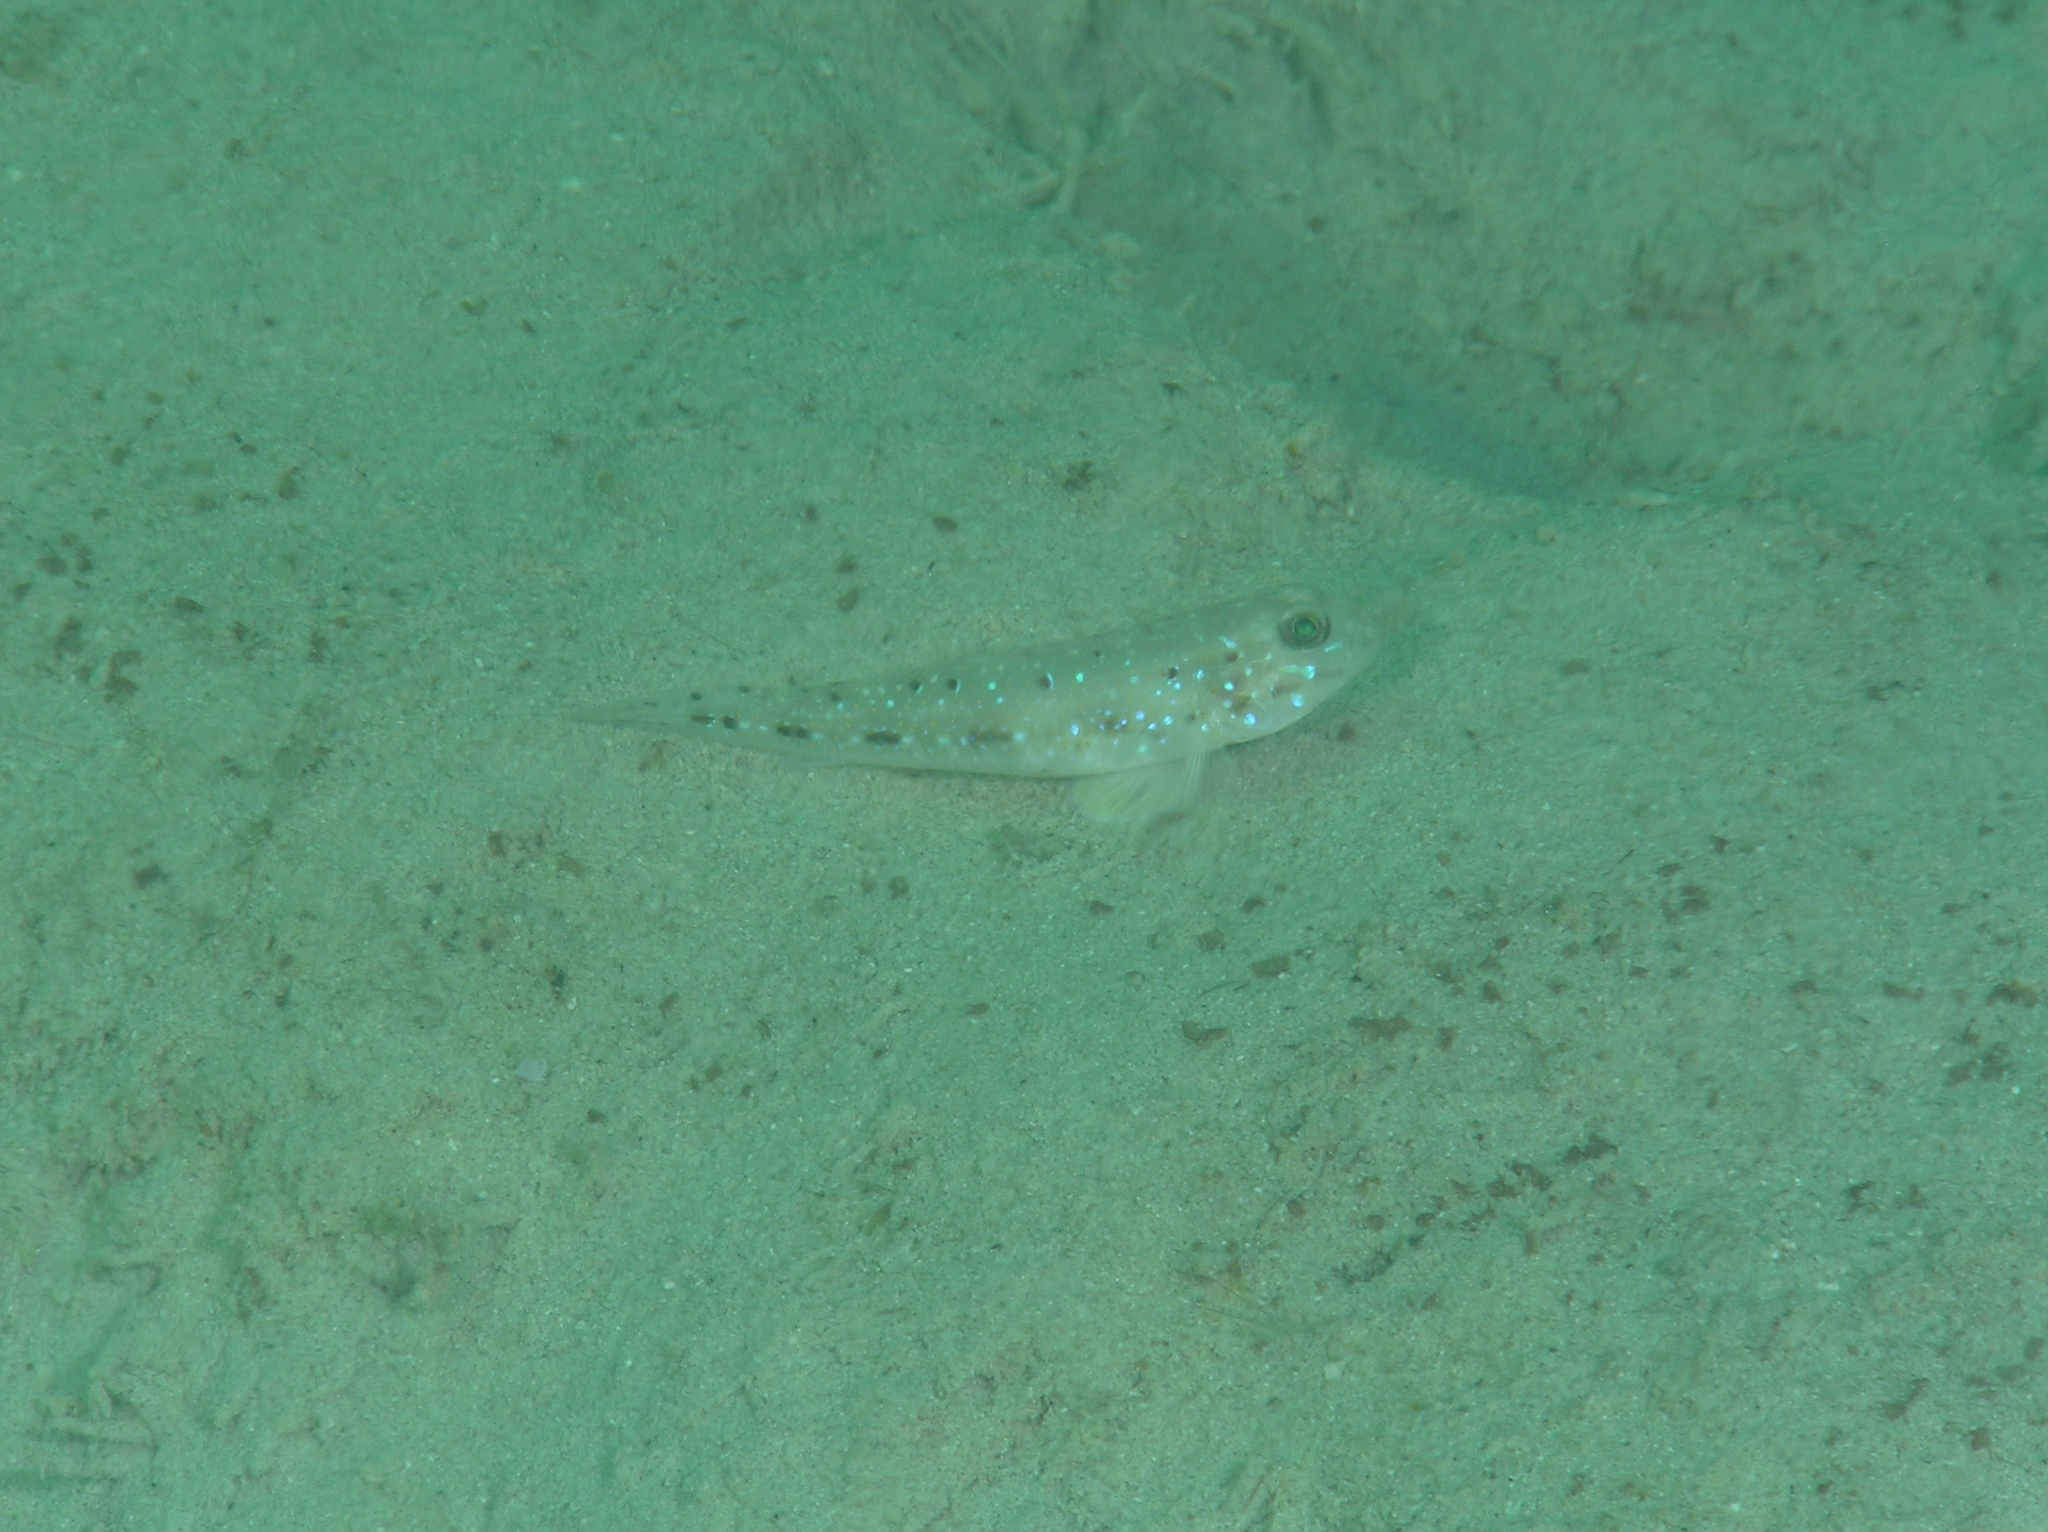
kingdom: Animalia
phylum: Chordata
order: Perciformes
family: Gobiidae
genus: Oplopomus
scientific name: Oplopomus oplopomus
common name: Spinecheek goby
